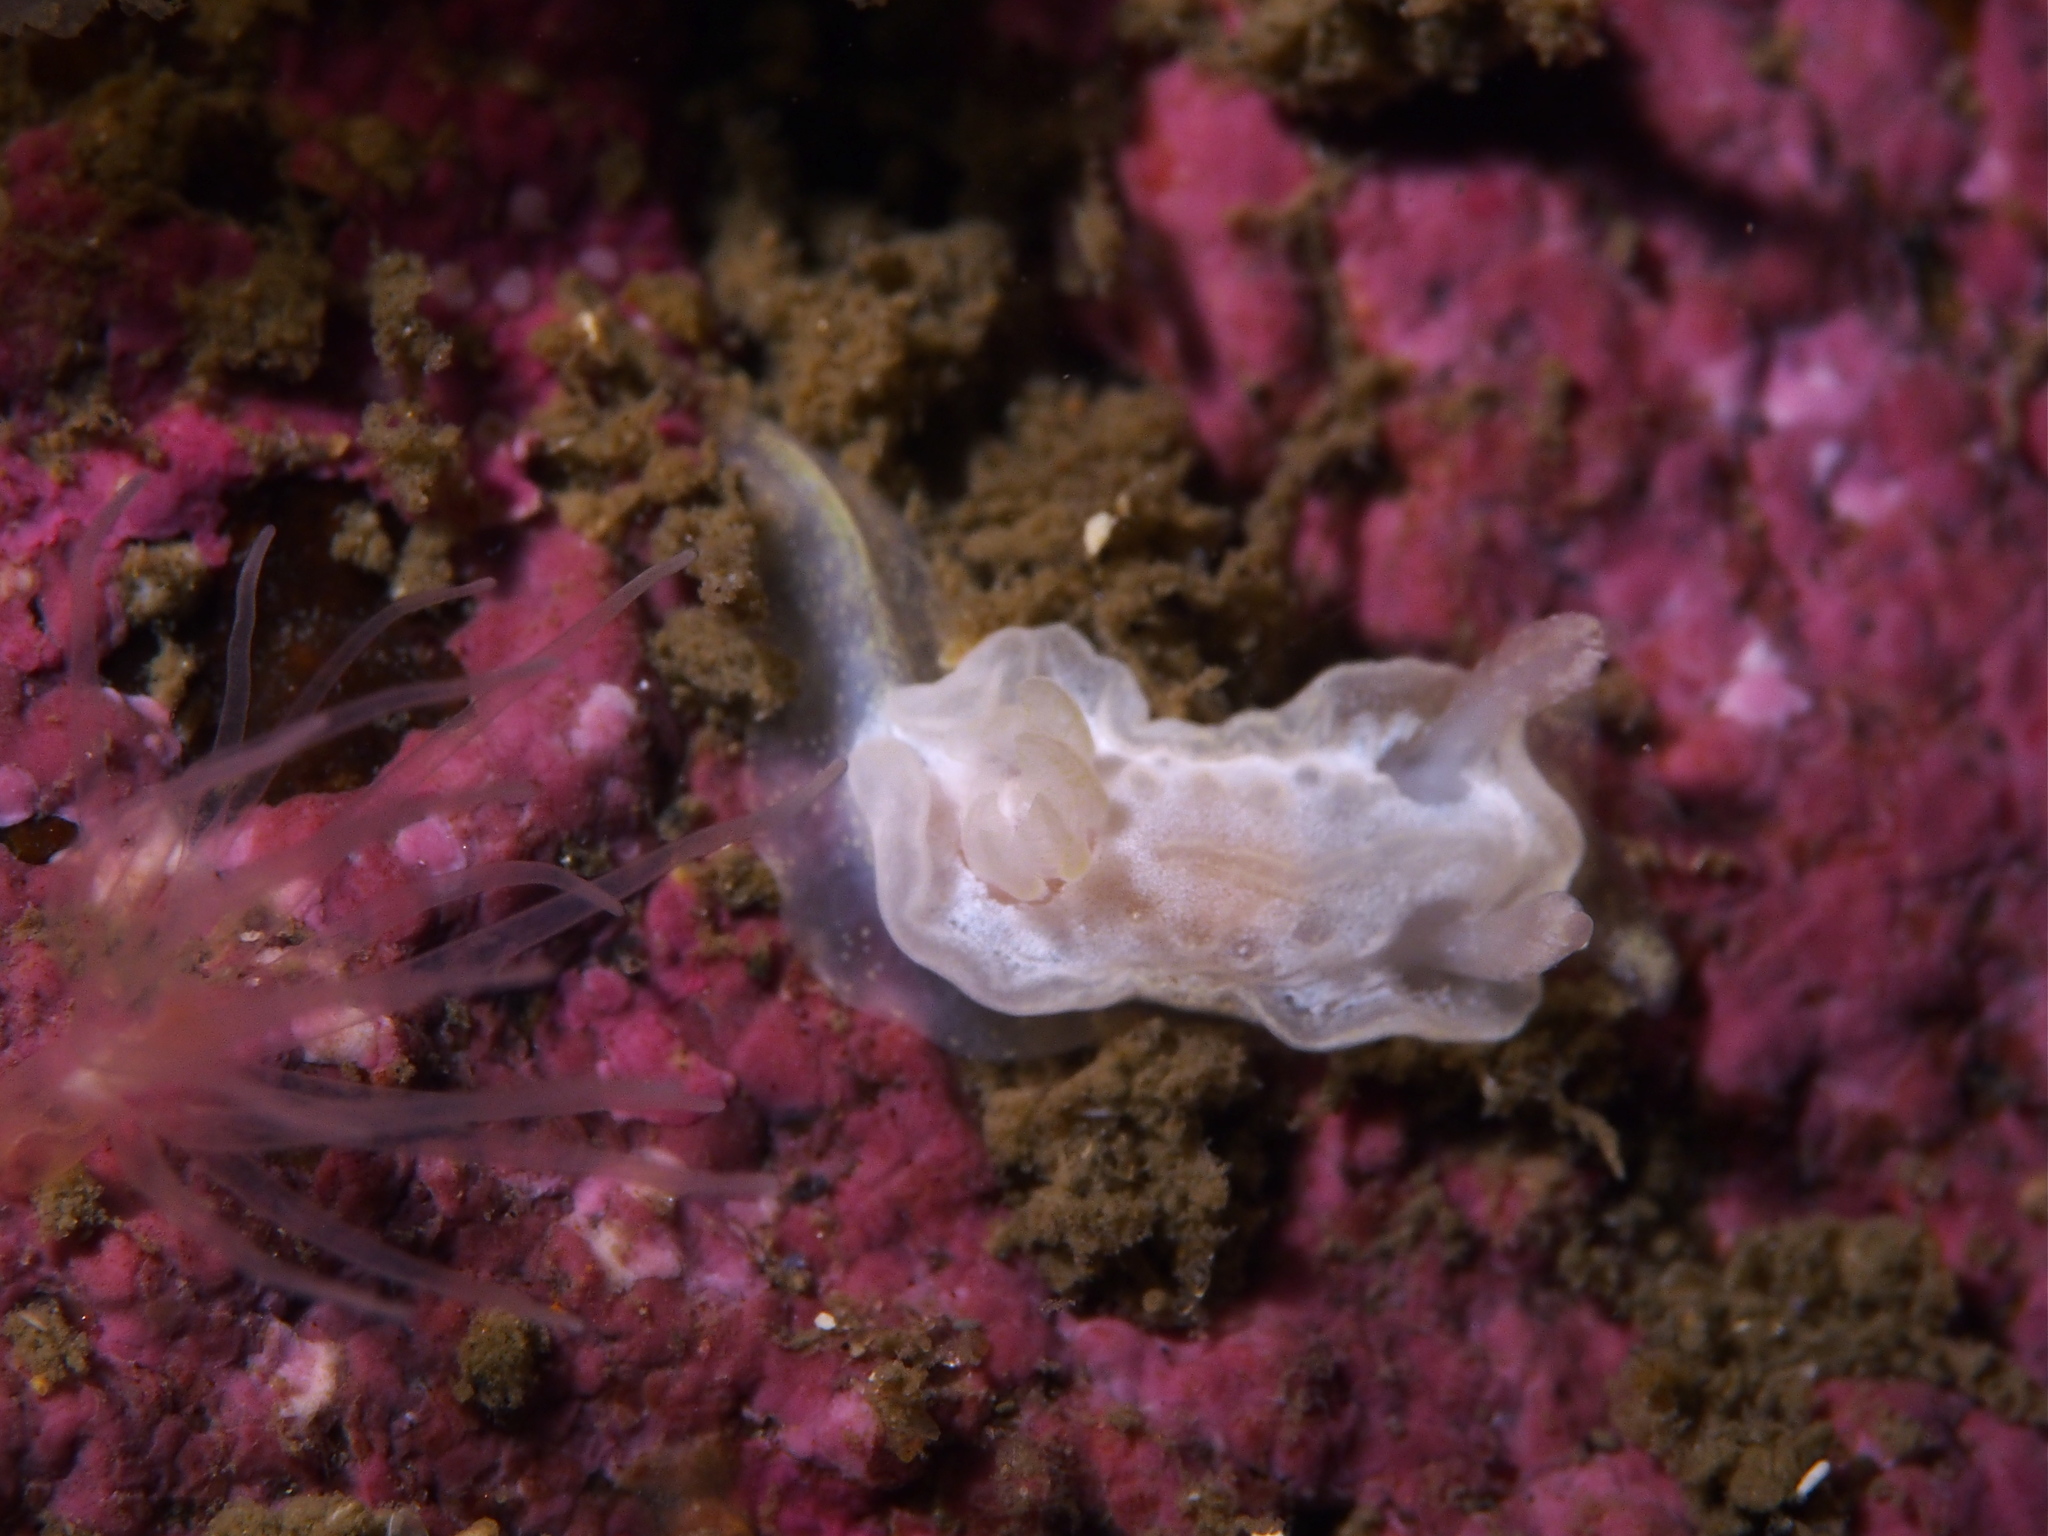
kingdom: Animalia
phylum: Mollusca
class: Gastropoda
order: Nudibranchia
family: Goniodorididae
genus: Okenia
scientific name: Okenia
